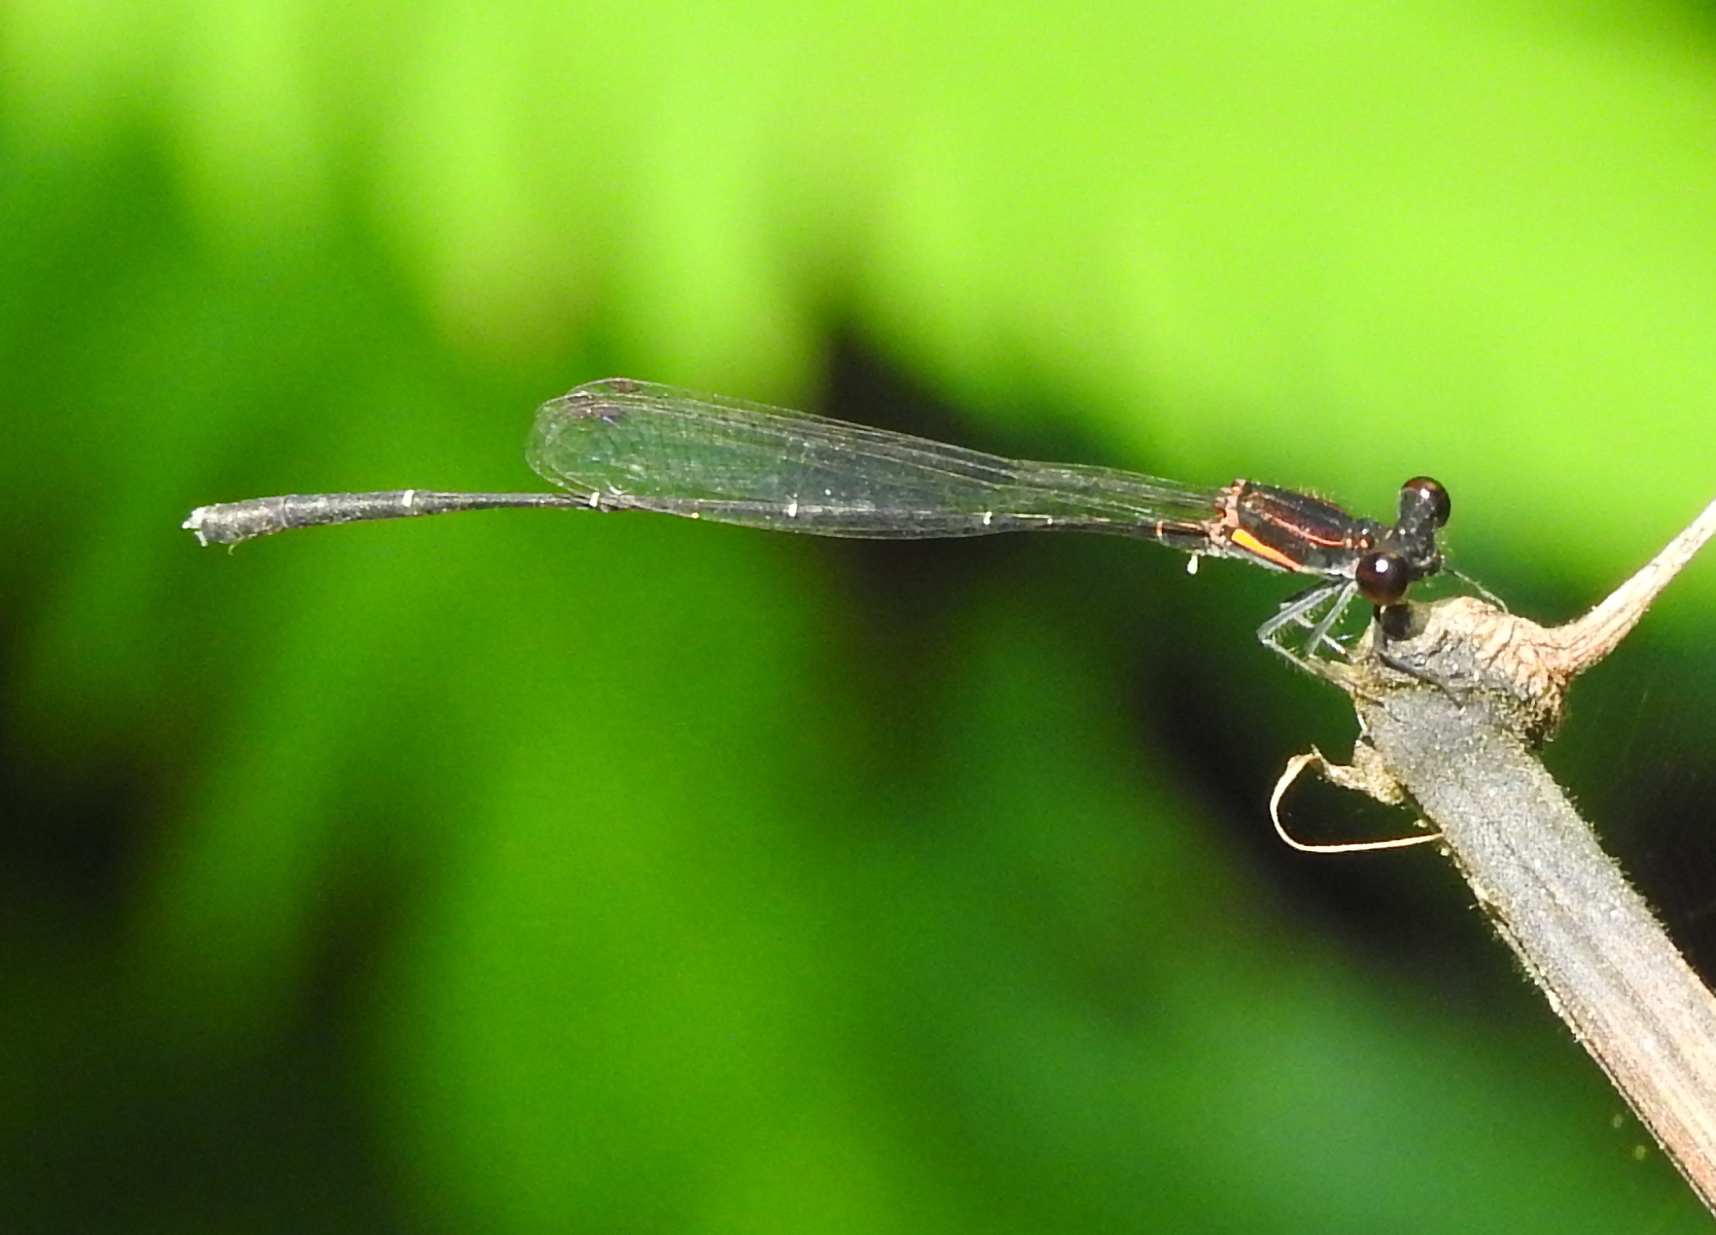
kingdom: Animalia
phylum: Arthropoda
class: Insecta
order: Odonata
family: Platycnemididae
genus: Prodasineura
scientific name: Prodasineura verticalis
